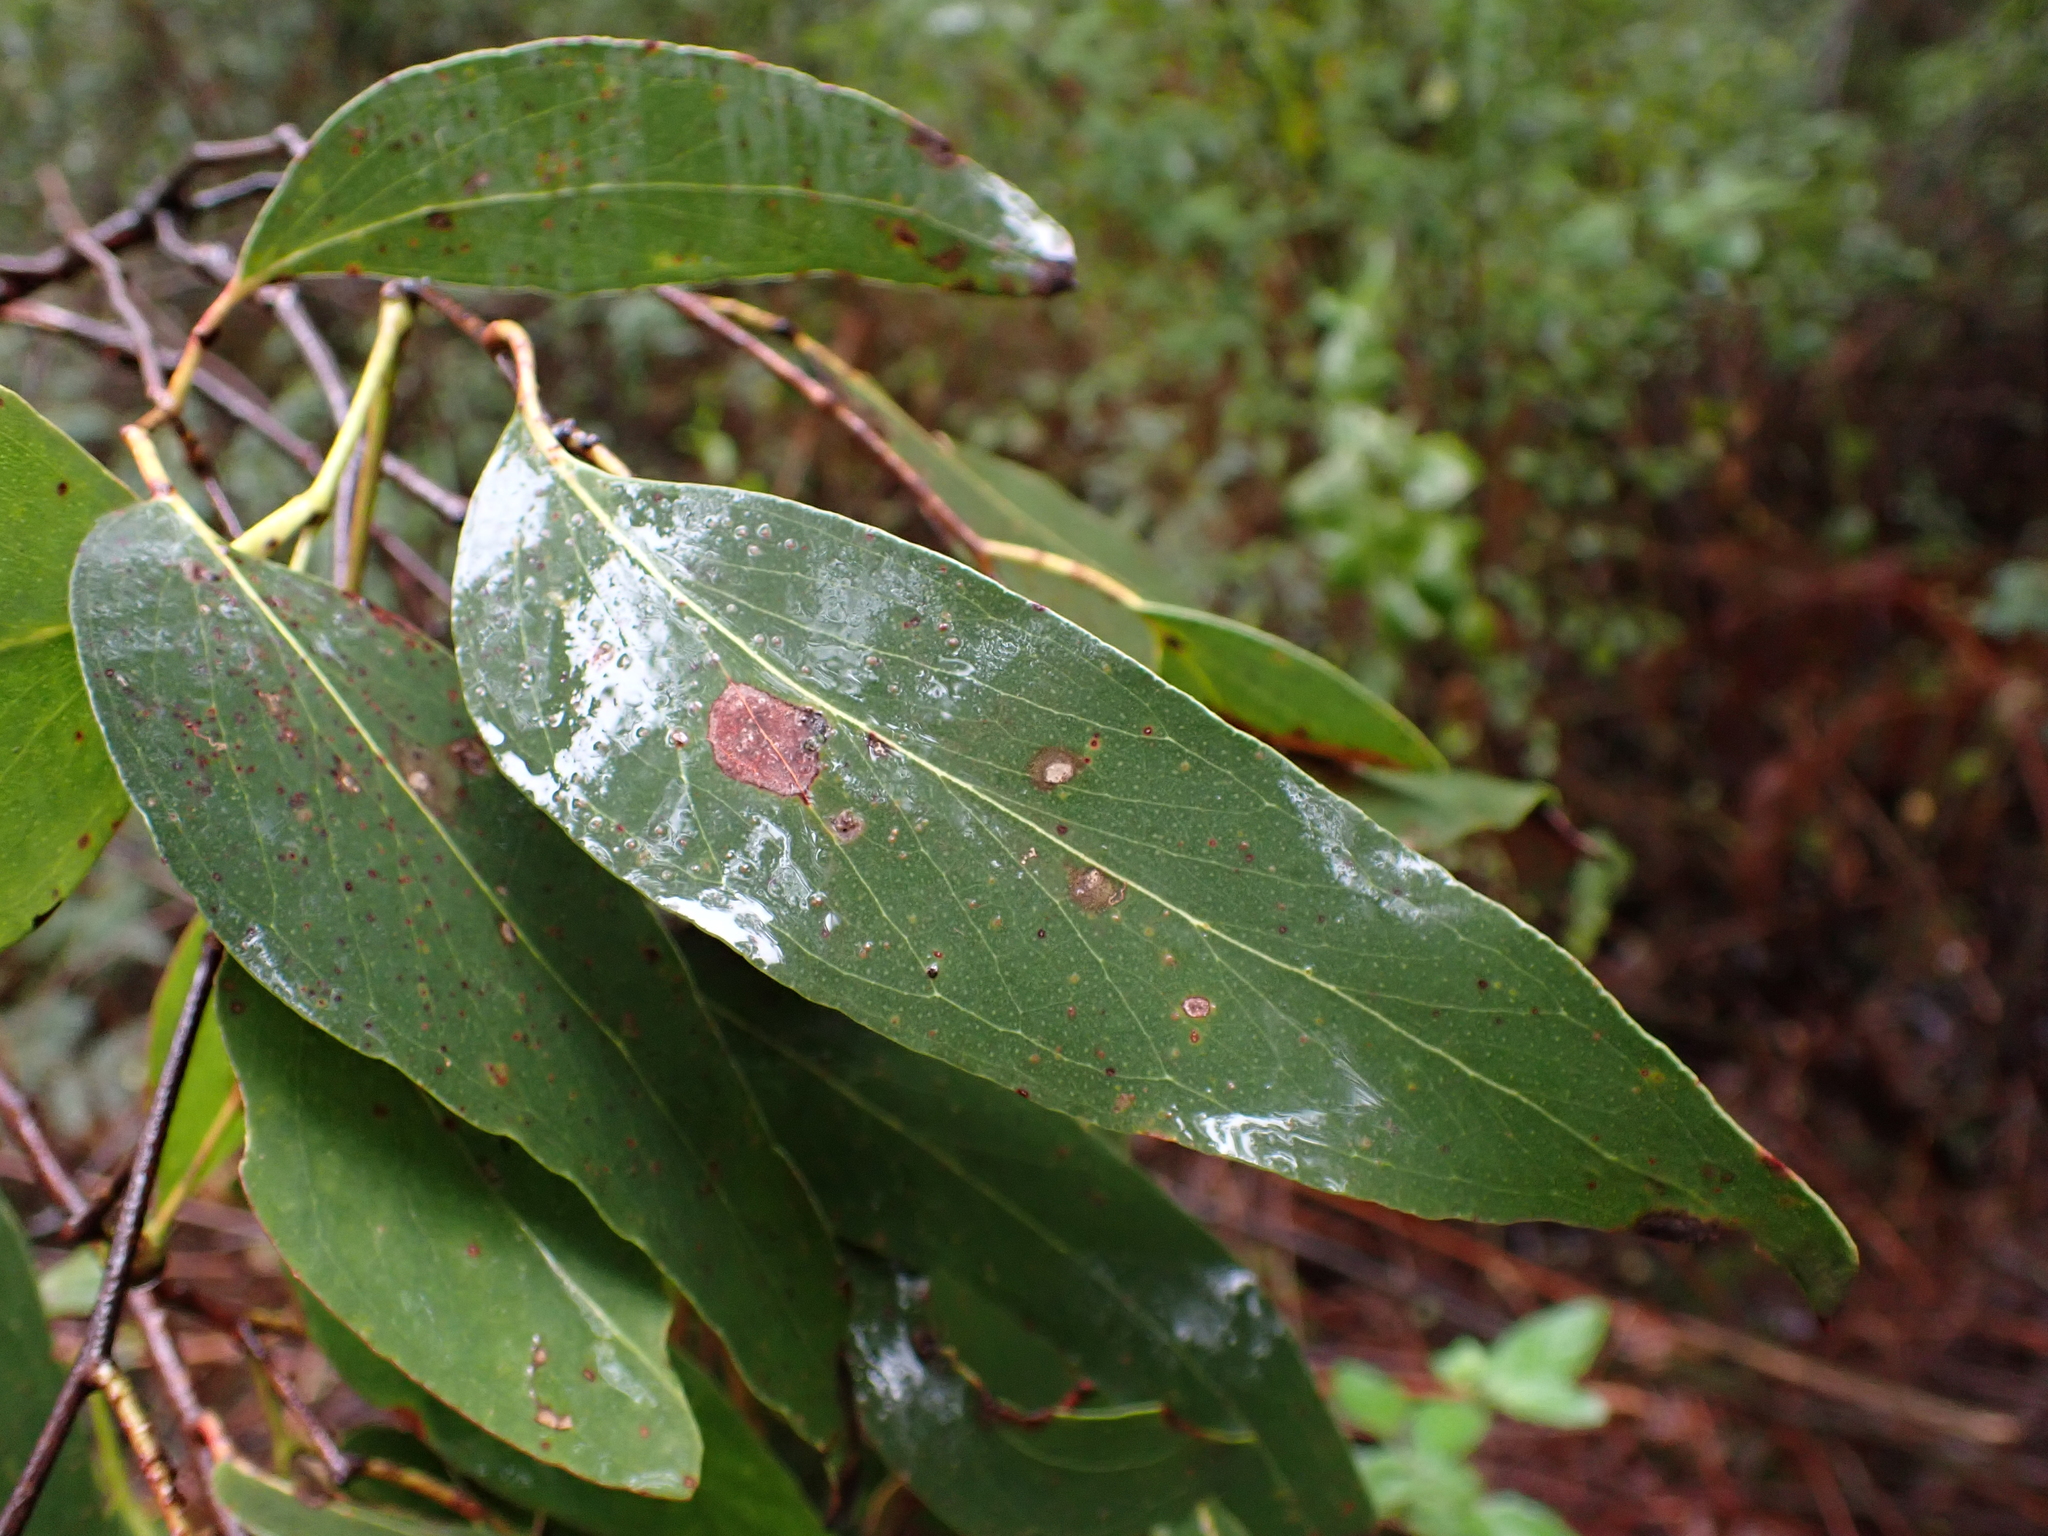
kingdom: Plantae
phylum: Tracheophyta
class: Magnoliopsida
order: Myrtales
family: Myrtaceae
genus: Eucalyptus
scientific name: Eucalyptus obliqua
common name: Messmate stringybark
